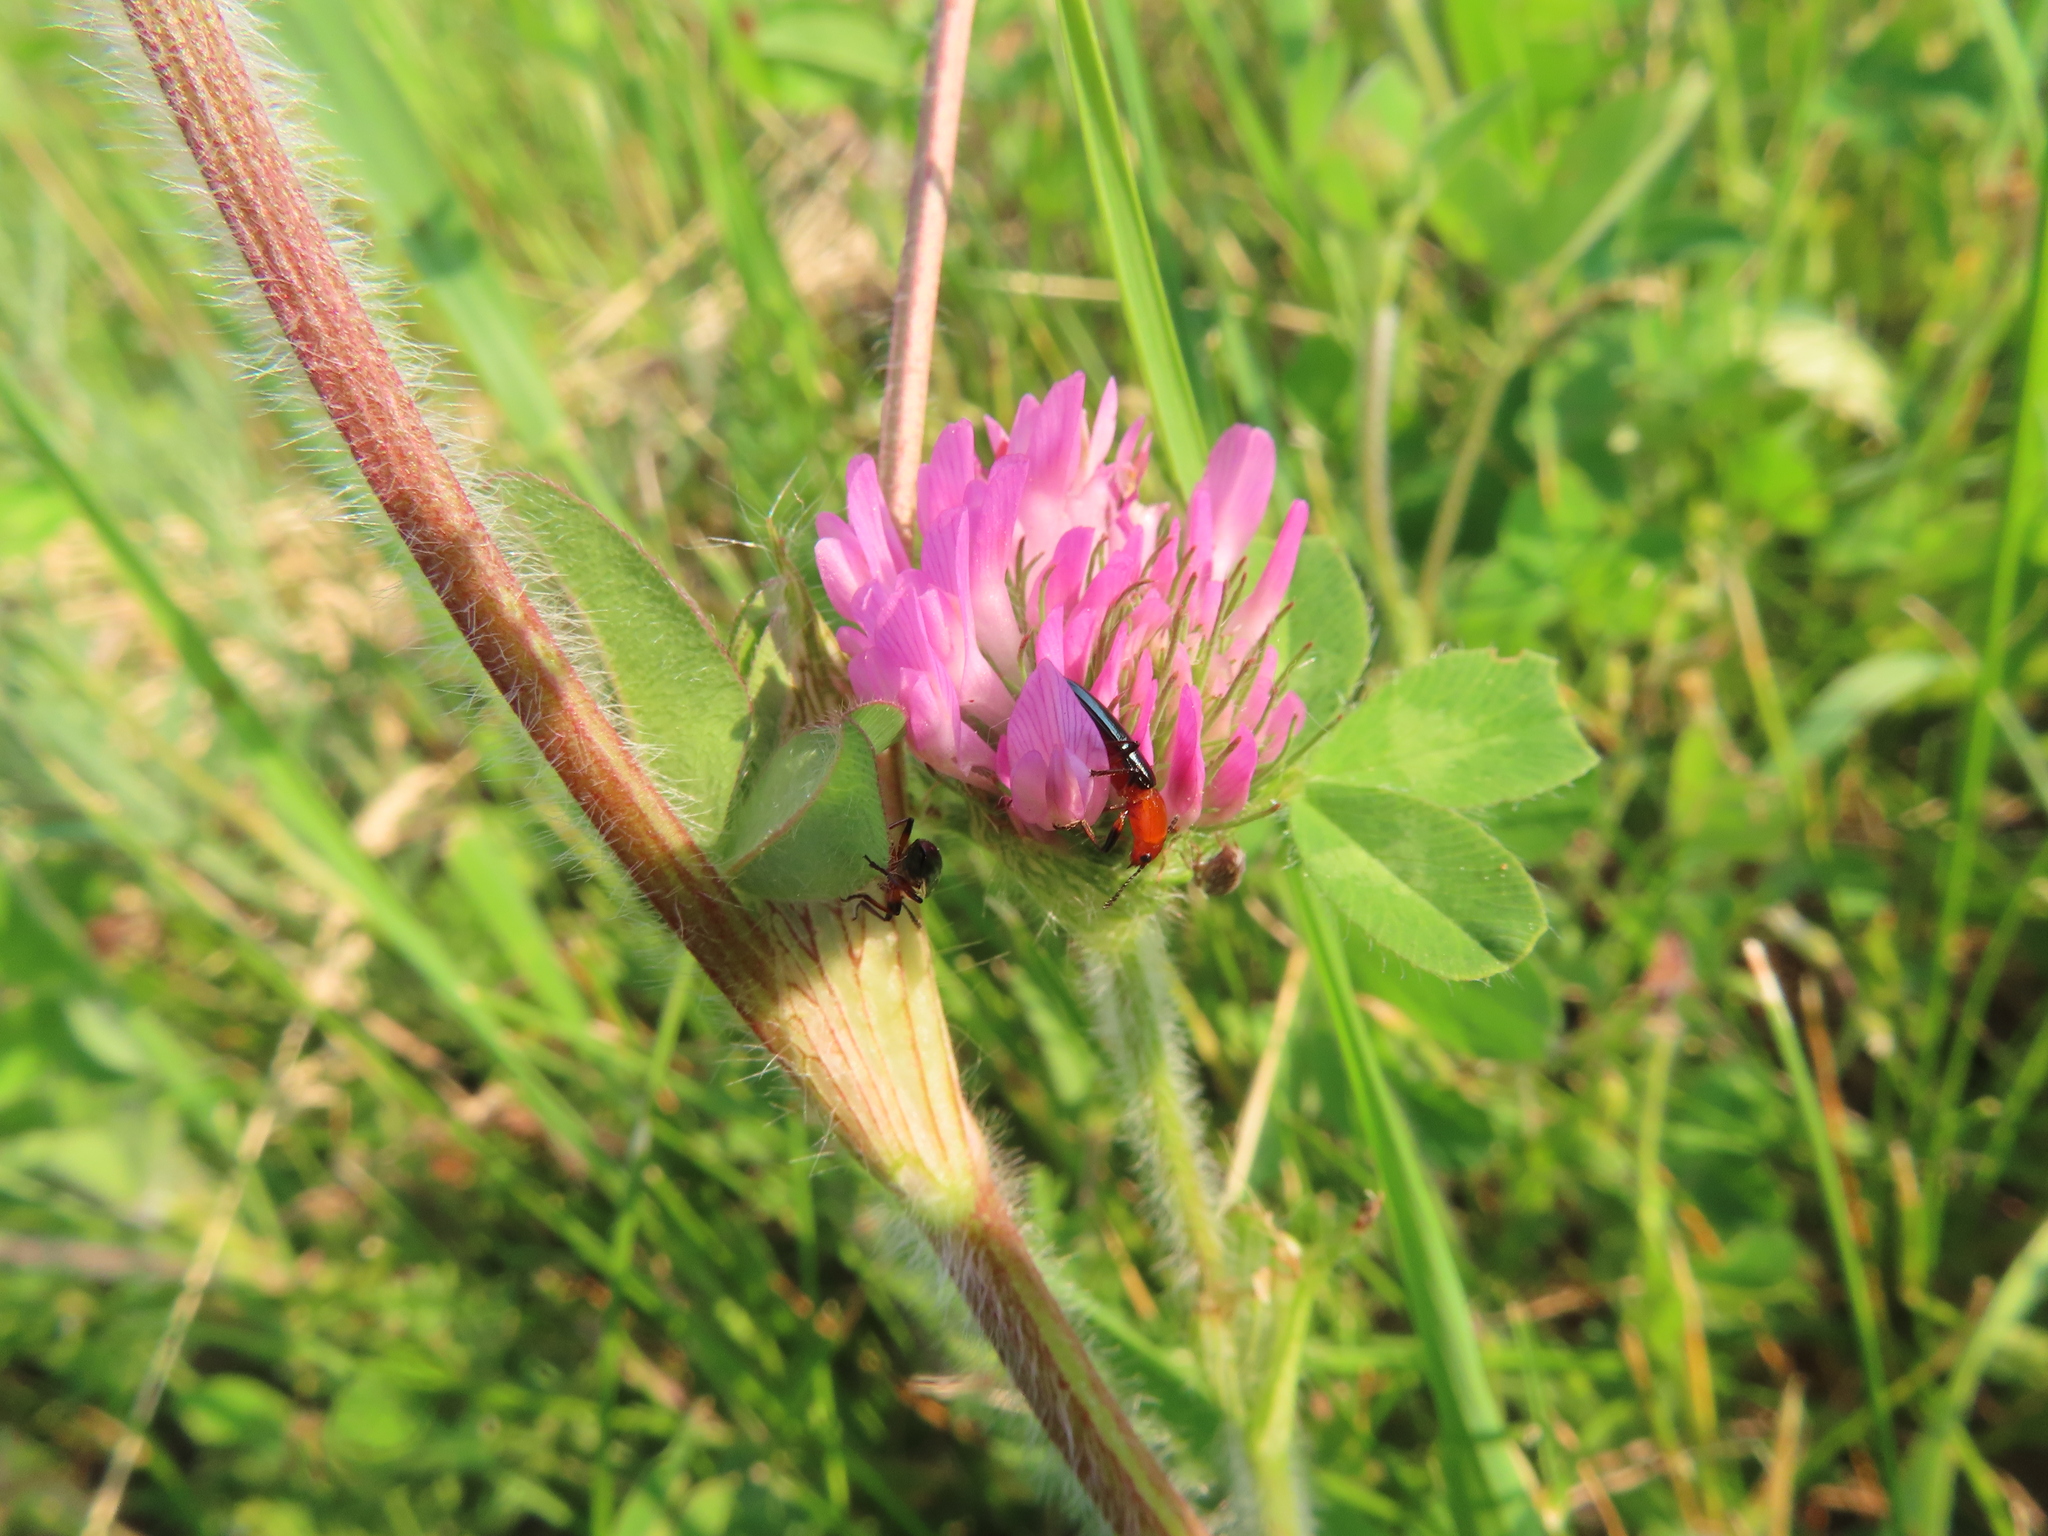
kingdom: Plantae
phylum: Tracheophyta
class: Magnoliopsida
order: Fabales
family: Fabaceae
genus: Trifolium
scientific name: Trifolium pratense
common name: Red clover
